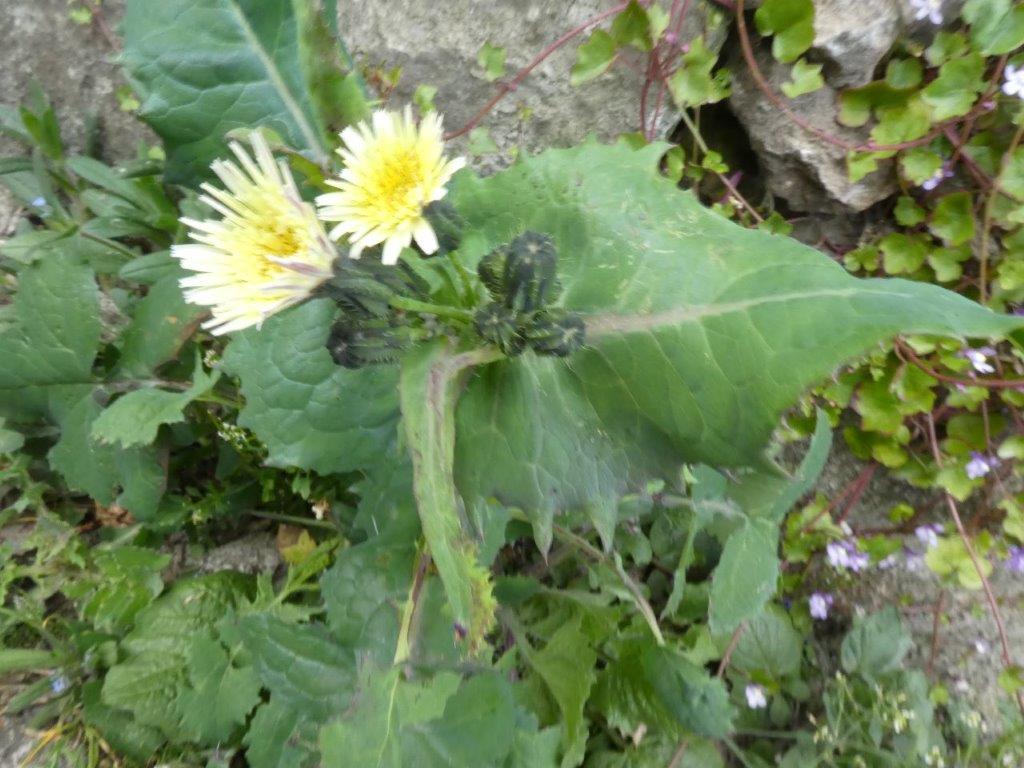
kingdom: Plantae
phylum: Tracheophyta
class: Magnoliopsida
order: Asterales
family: Asteraceae
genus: Sonchus
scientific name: Sonchus oleraceus
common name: Common sowthistle
